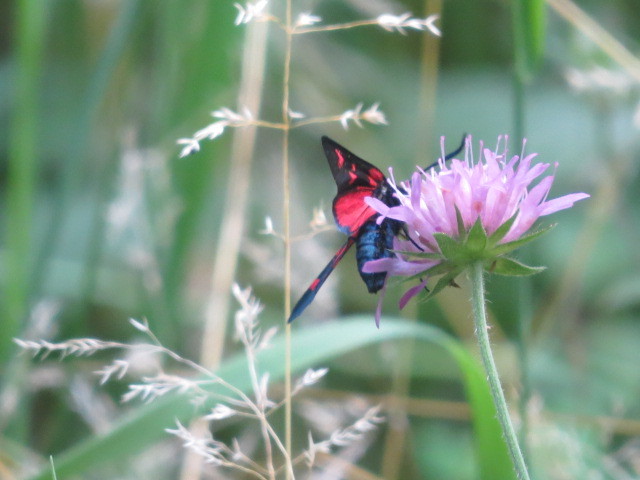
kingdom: Animalia
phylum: Arthropoda
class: Insecta
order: Lepidoptera
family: Zygaenidae
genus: Zygaena
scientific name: Zygaena lonicerae
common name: Narrow-bordered five-spot burnet
